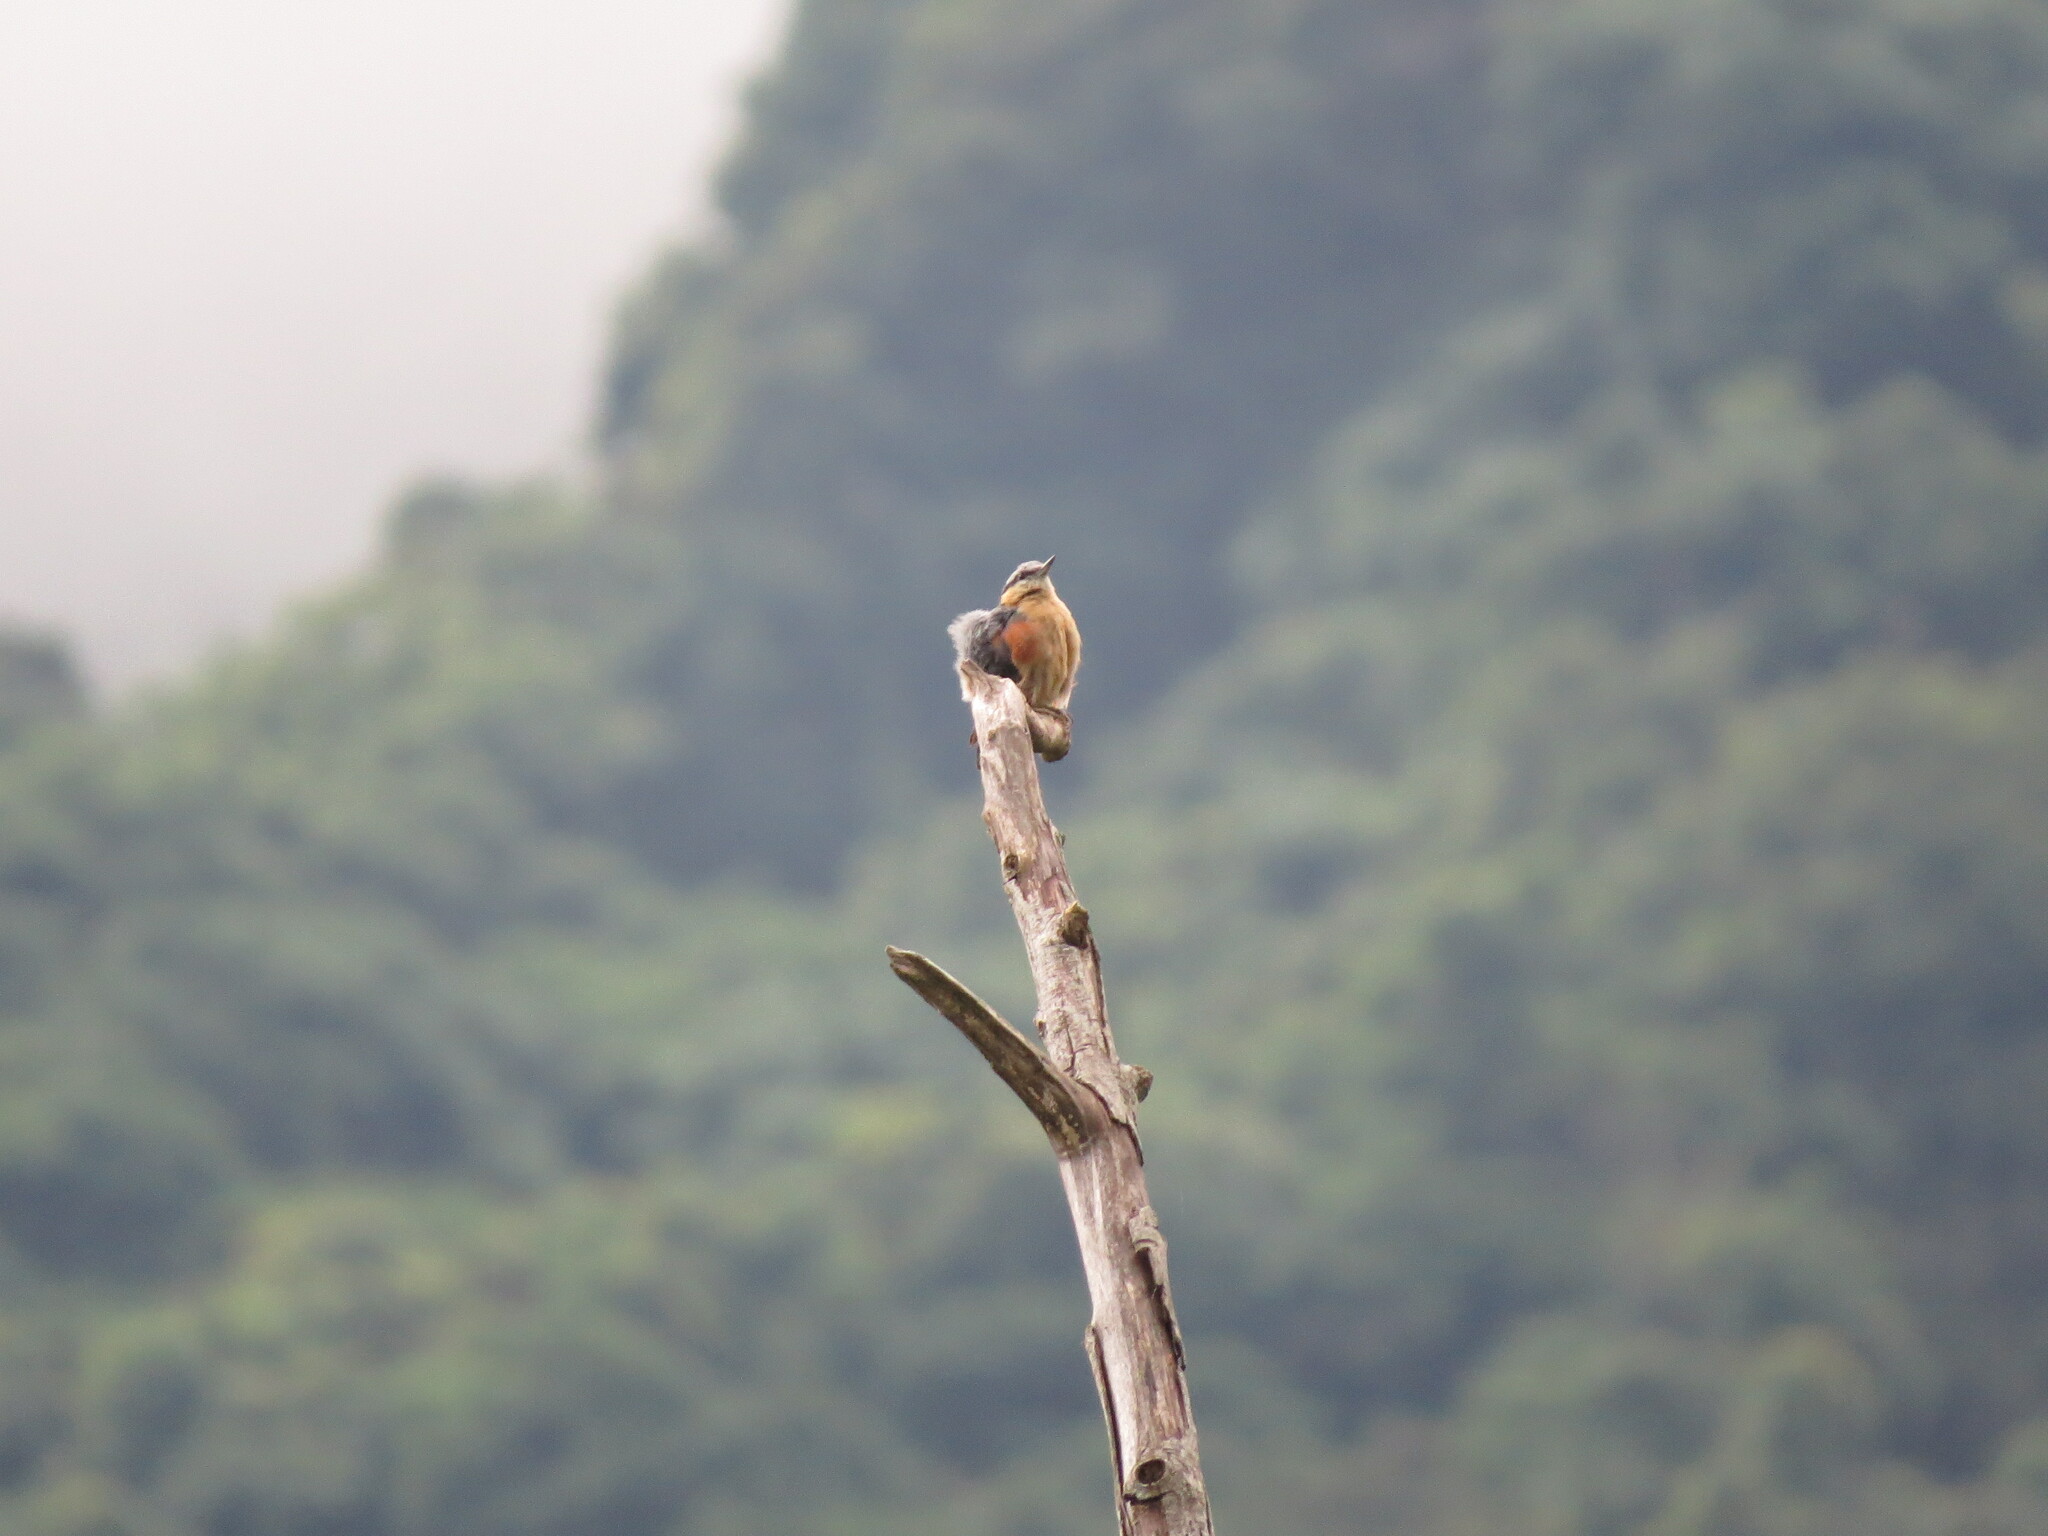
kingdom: Animalia
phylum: Chordata
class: Aves
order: Passeriformes
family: Sittidae
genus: Sitta
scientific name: Sitta europaea
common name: Eurasian nuthatch
